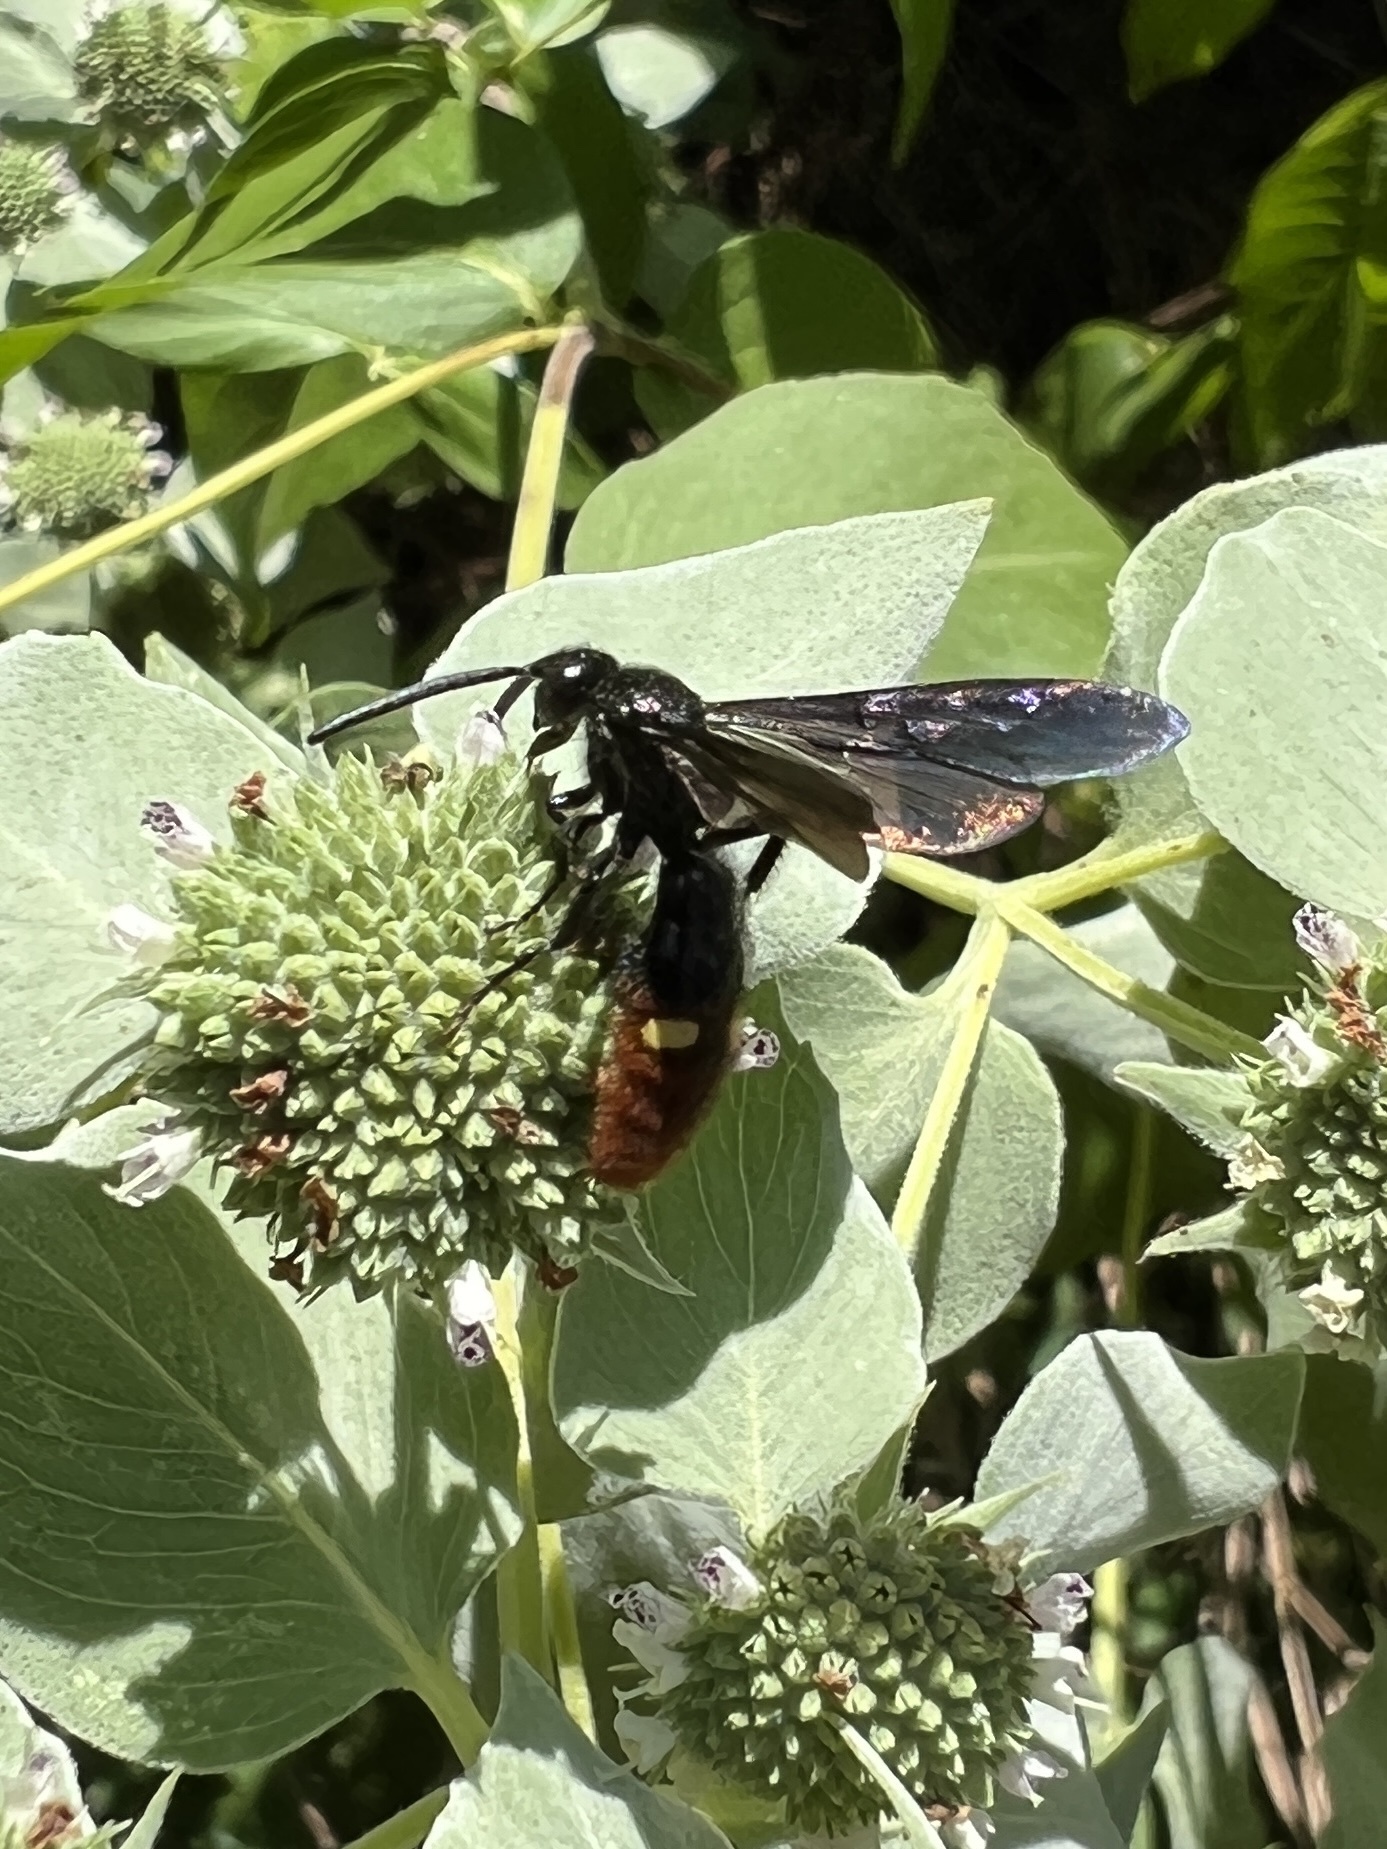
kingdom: Animalia
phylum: Arthropoda
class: Insecta
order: Hymenoptera
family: Scoliidae
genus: Scolia
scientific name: Scolia dubia
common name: Blue-winged scoliid wasp
